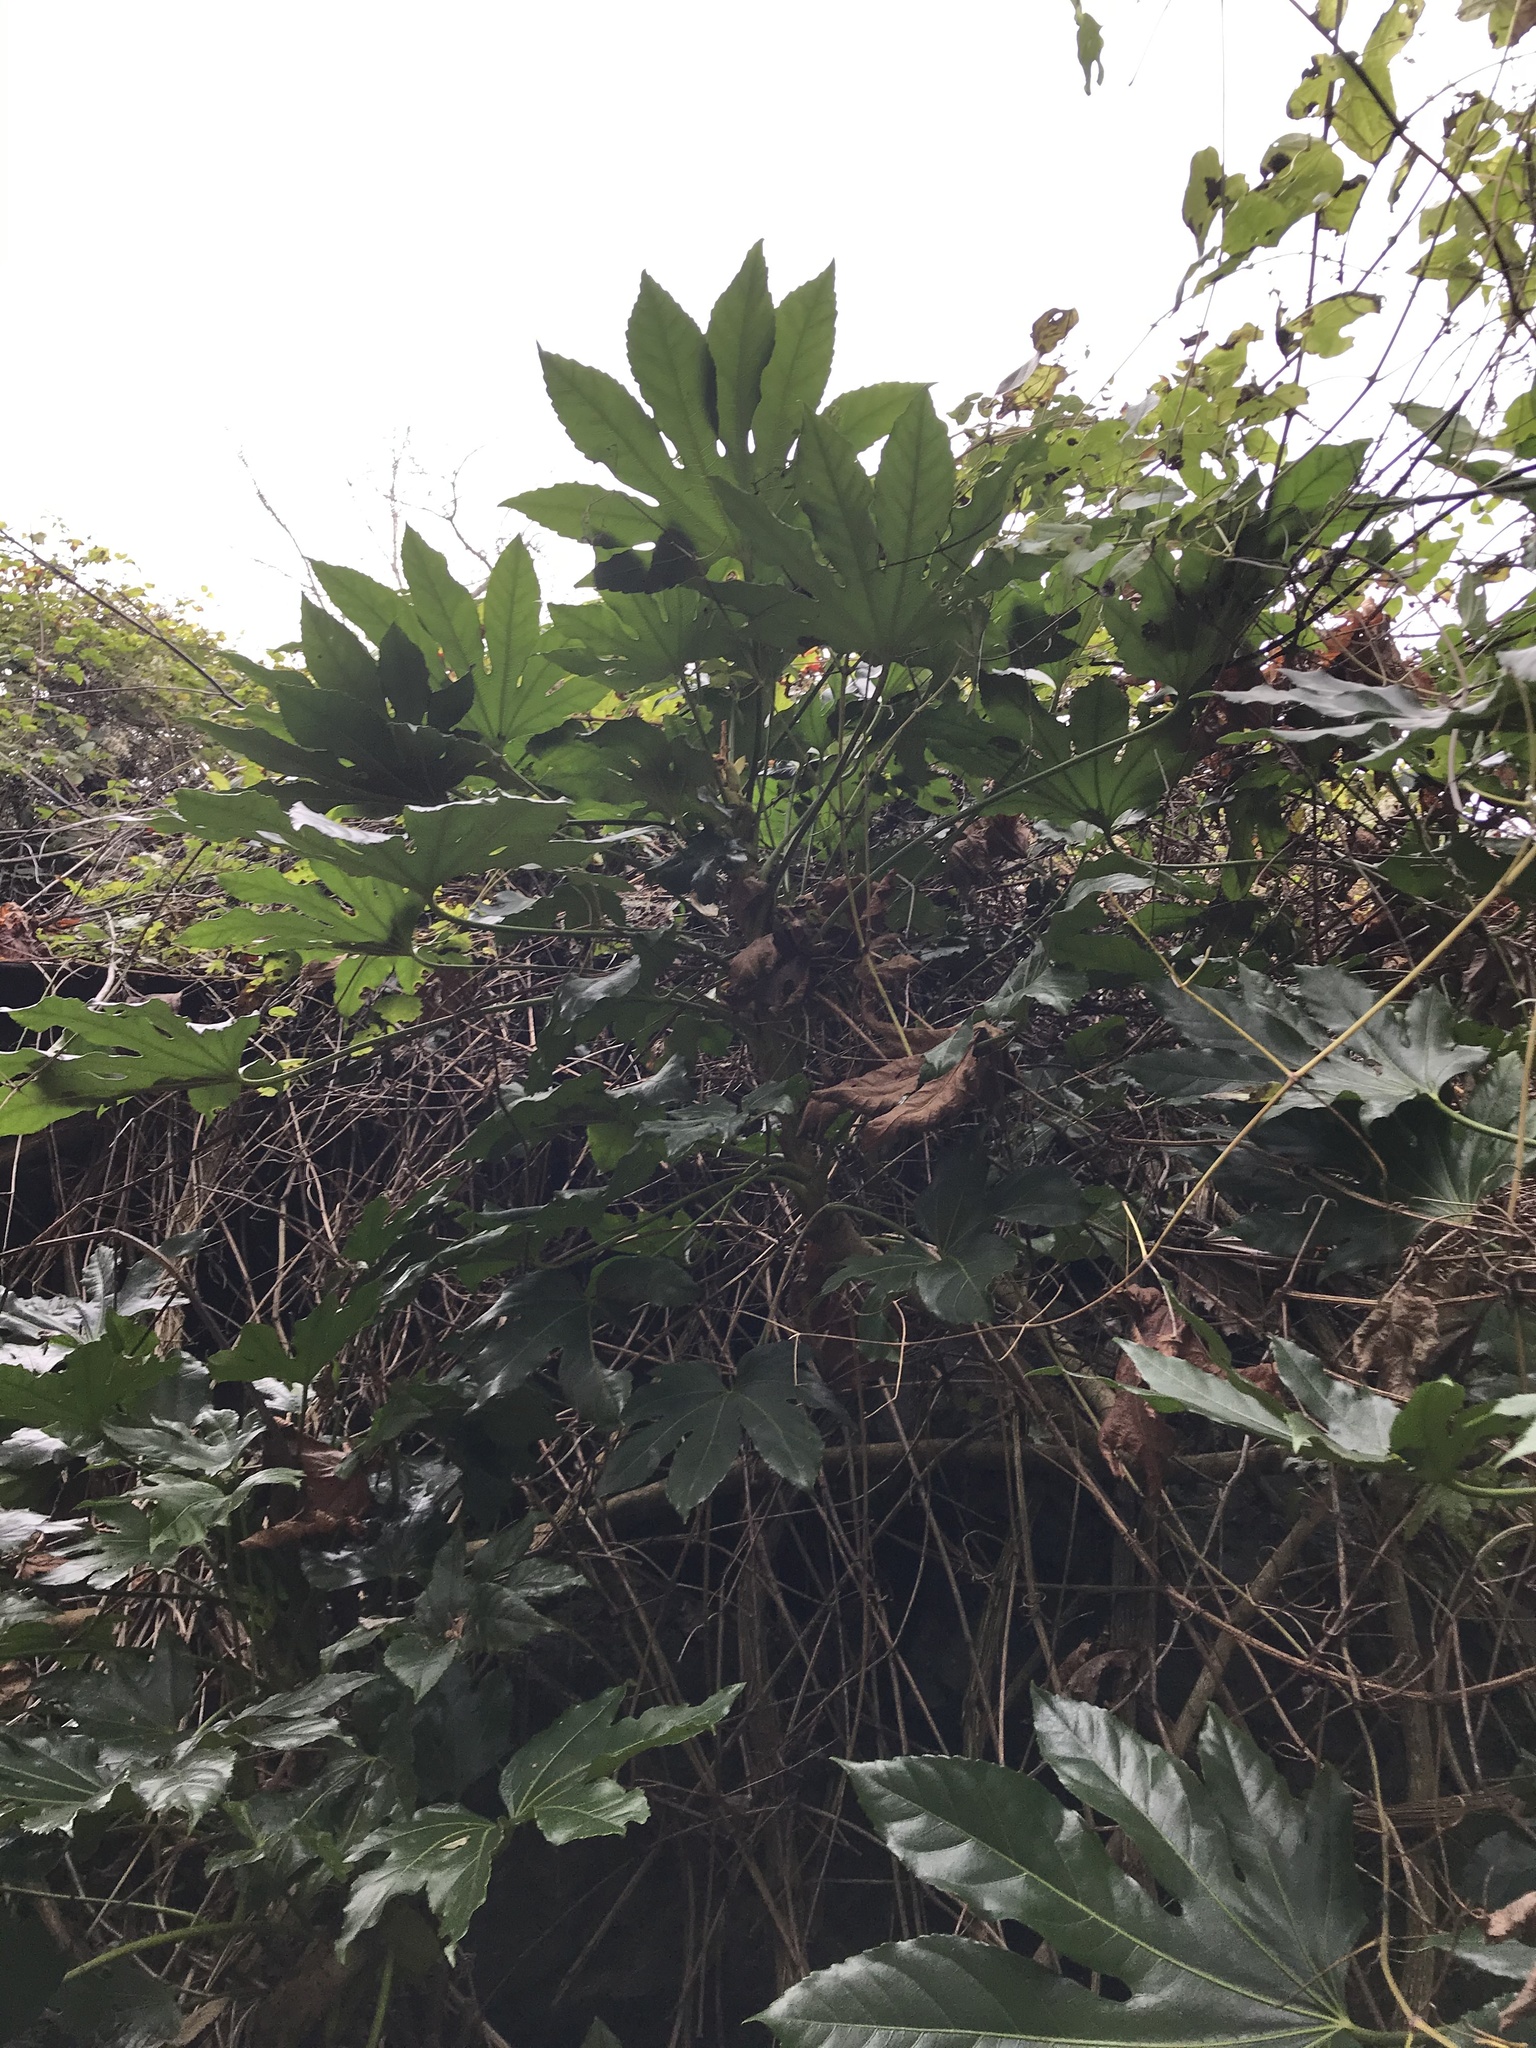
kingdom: Plantae
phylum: Tracheophyta
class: Magnoliopsida
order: Apiales
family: Araliaceae
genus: Fatsia
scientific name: Fatsia japonica
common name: Fatsia
